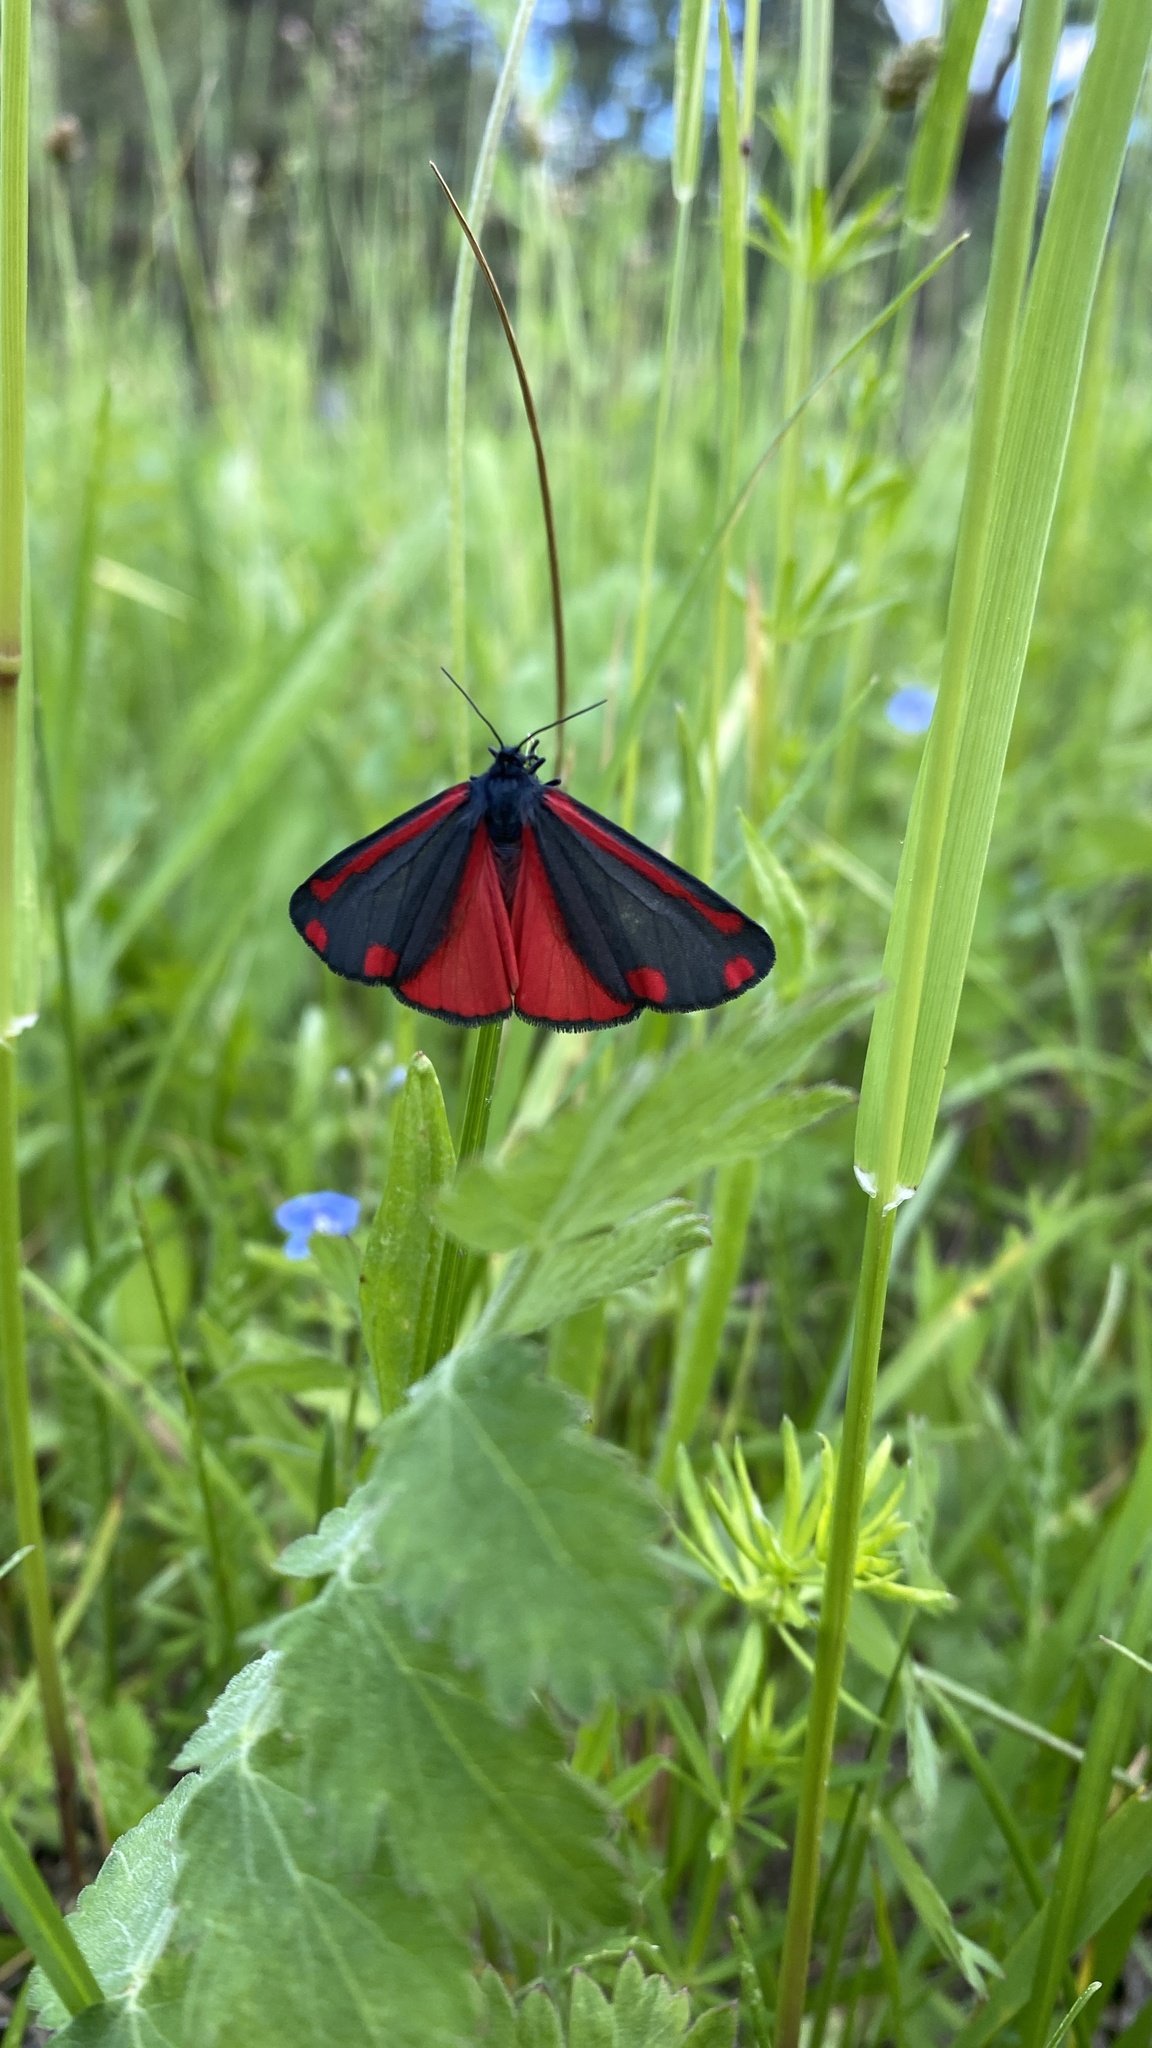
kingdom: Animalia
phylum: Arthropoda
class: Insecta
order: Lepidoptera
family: Erebidae
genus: Tyria
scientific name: Tyria jacobaeae
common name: Cinnabar
